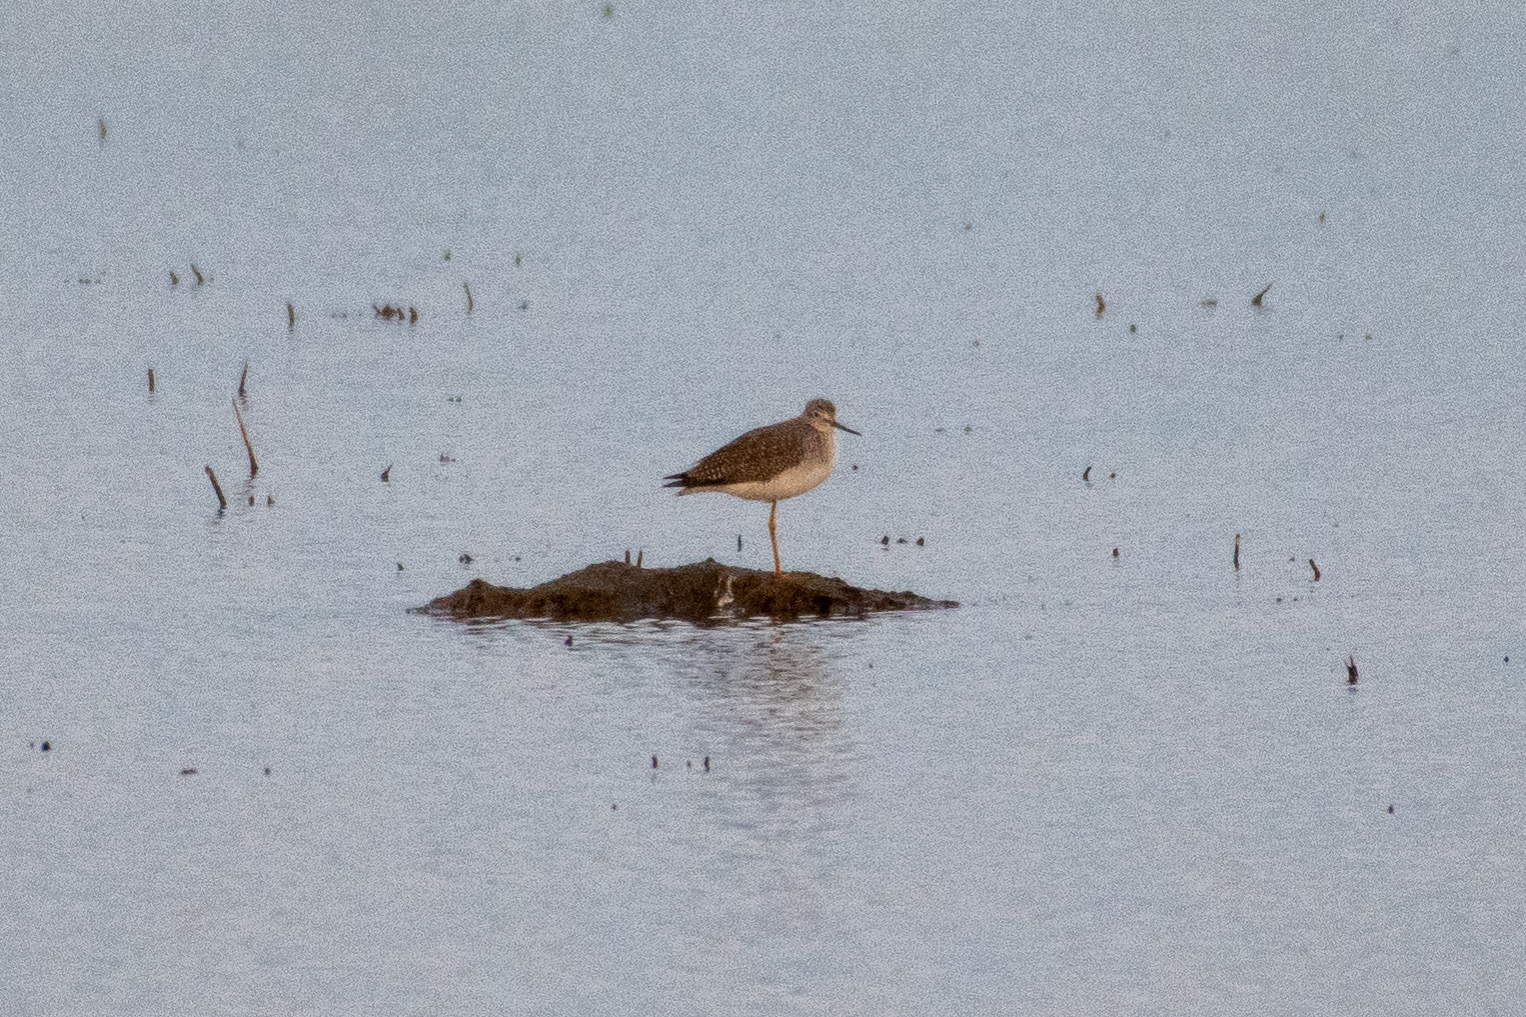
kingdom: Animalia
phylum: Chordata
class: Aves
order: Charadriiformes
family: Scolopacidae
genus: Tringa
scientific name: Tringa melanoleuca
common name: Greater yellowlegs
